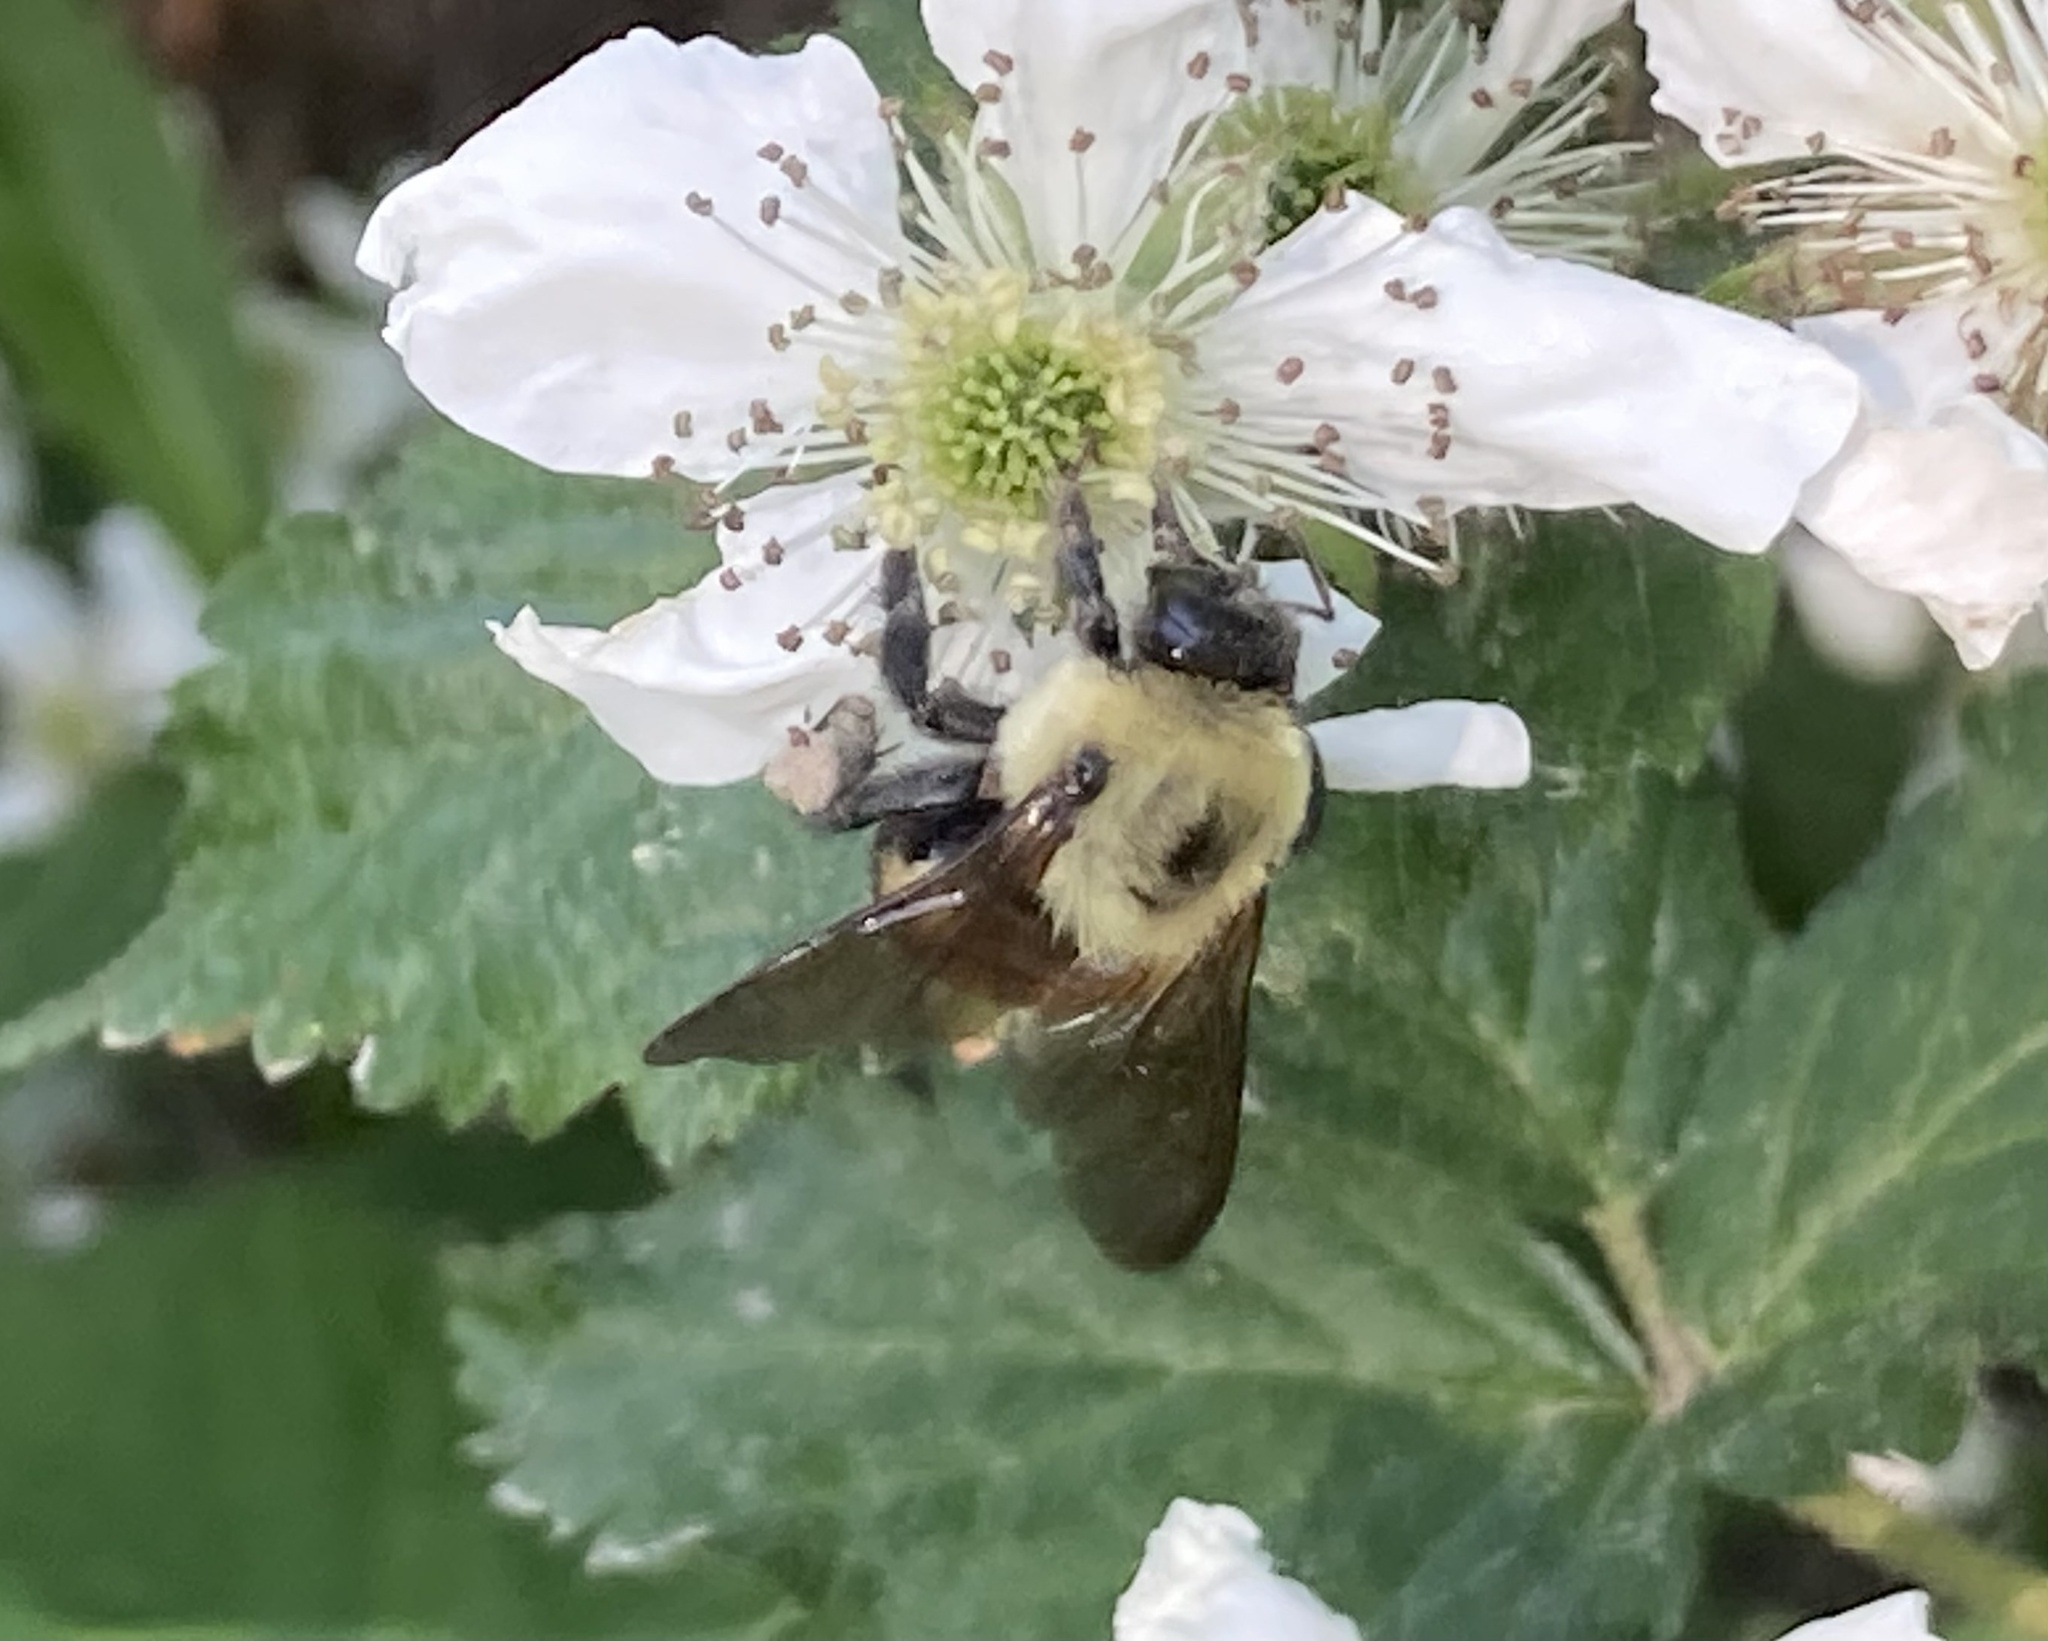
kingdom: Animalia
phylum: Arthropoda
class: Insecta
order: Hymenoptera
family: Apidae
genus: Bombus
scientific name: Bombus griseocollis
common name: Brown-belted bumble bee
